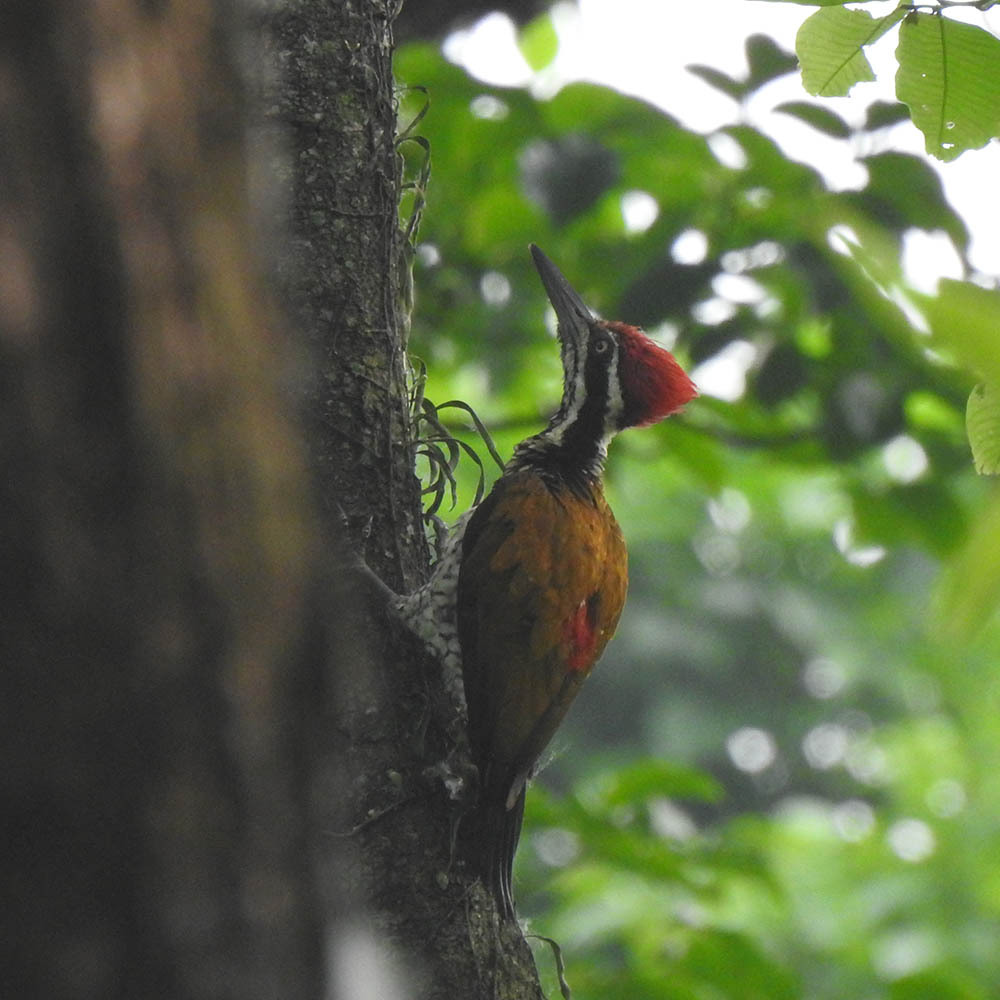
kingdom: Animalia
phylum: Chordata
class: Aves
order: Piciformes
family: Picidae
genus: Chrysocolaptes
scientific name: Chrysocolaptes guttacristatus
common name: Greater flameback
